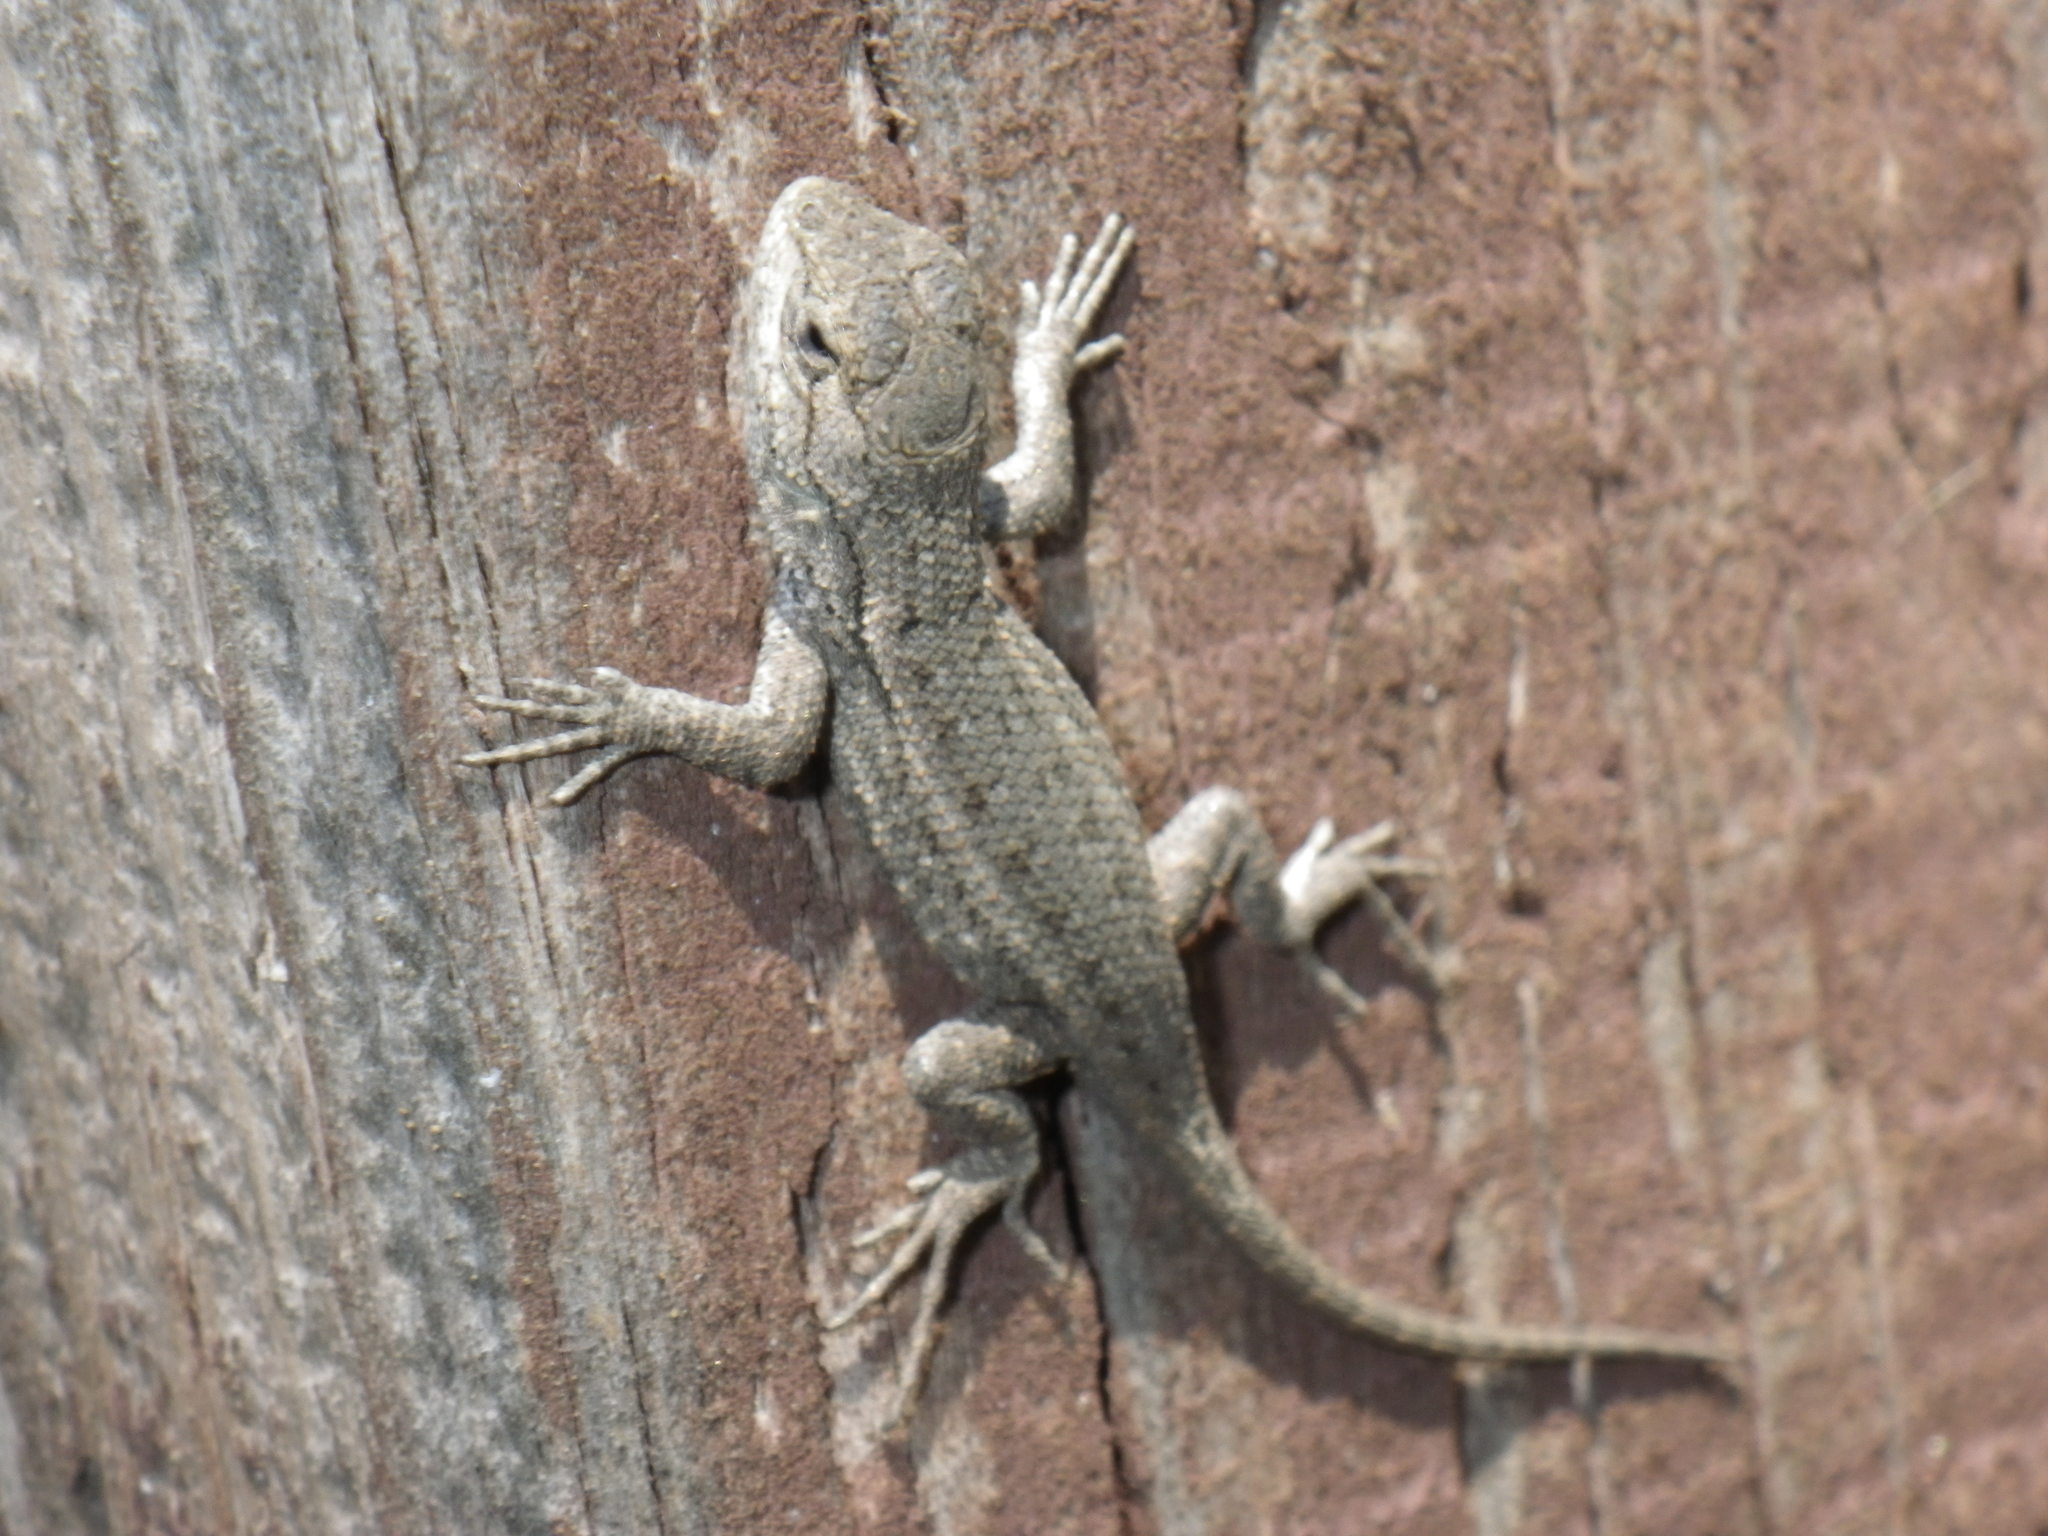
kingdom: Animalia
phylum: Chordata
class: Squamata
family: Phrynosomatidae
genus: Sceloporus
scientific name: Sceloporus occidentalis
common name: Western fence lizard
